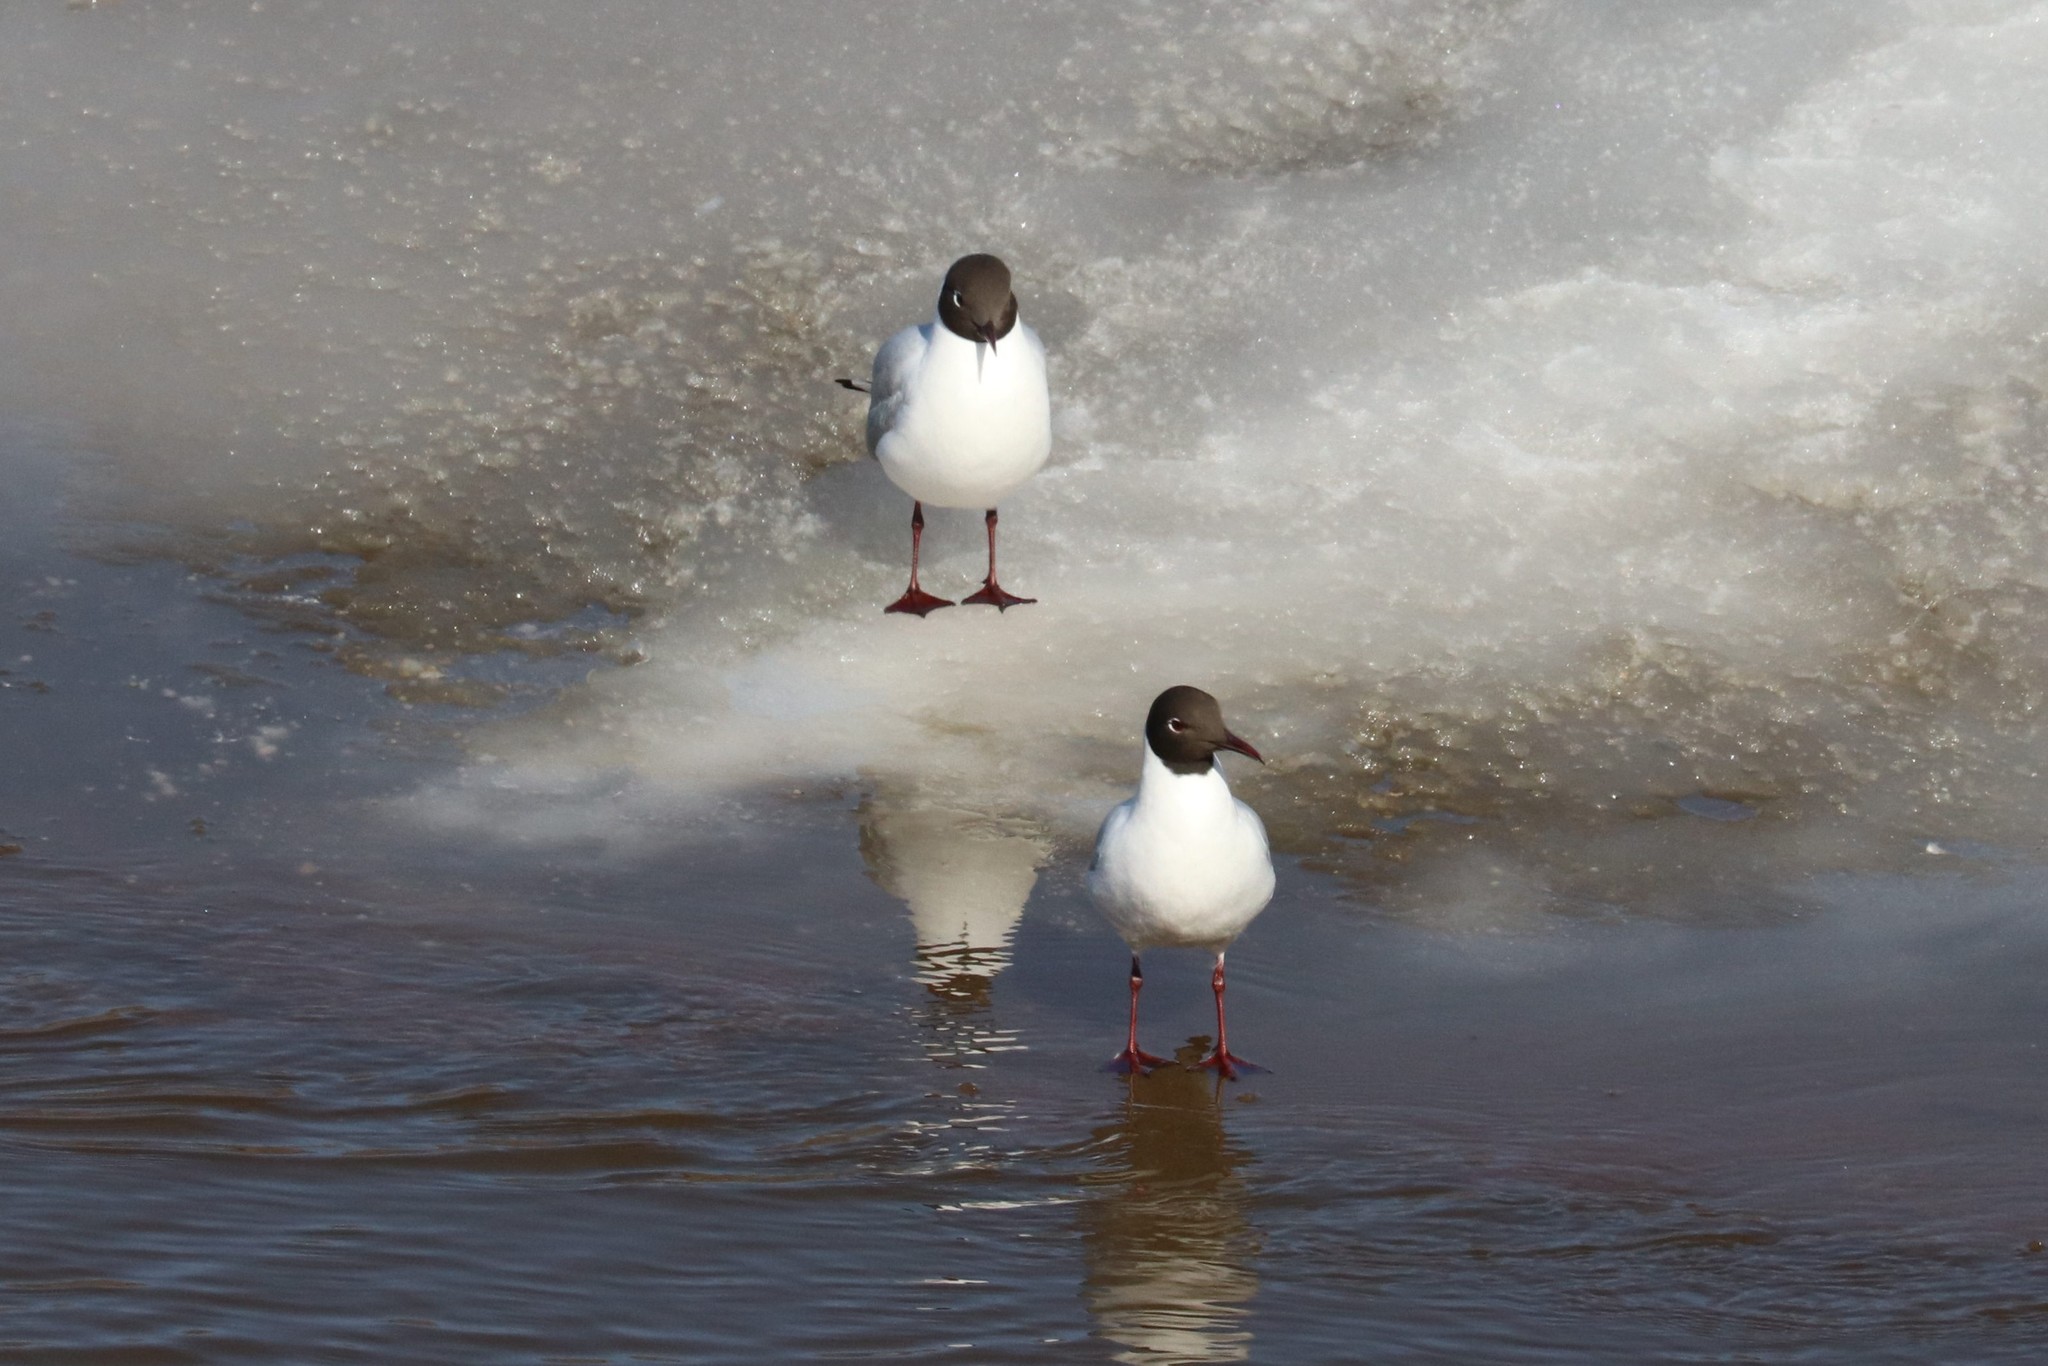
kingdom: Animalia
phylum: Chordata
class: Aves
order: Charadriiformes
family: Laridae
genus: Chroicocephalus
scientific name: Chroicocephalus ridibundus
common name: Black-headed gull
